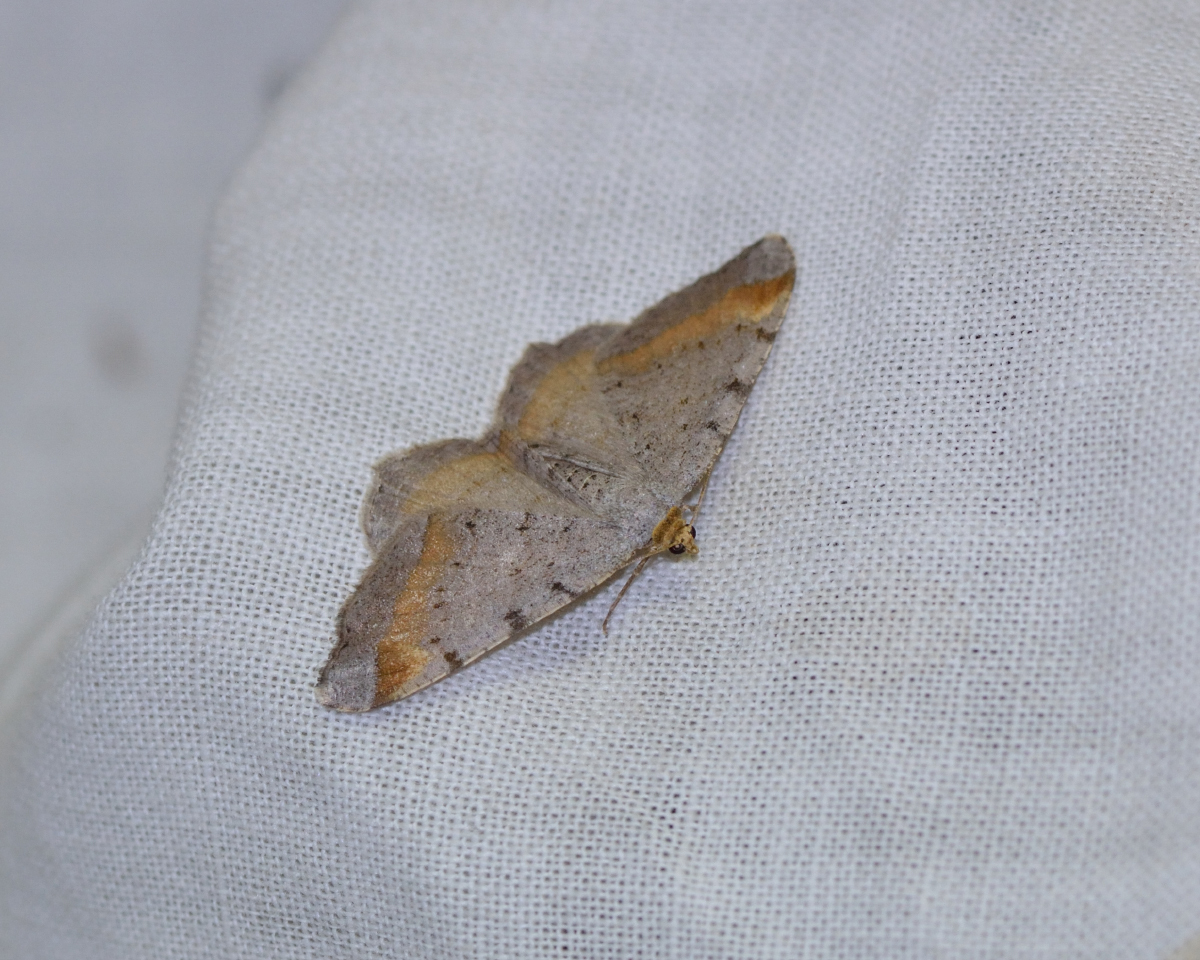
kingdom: Animalia
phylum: Arthropoda
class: Insecta
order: Lepidoptera
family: Geometridae
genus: Macaria
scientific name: Macaria liturata
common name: Tawny-barred angle
